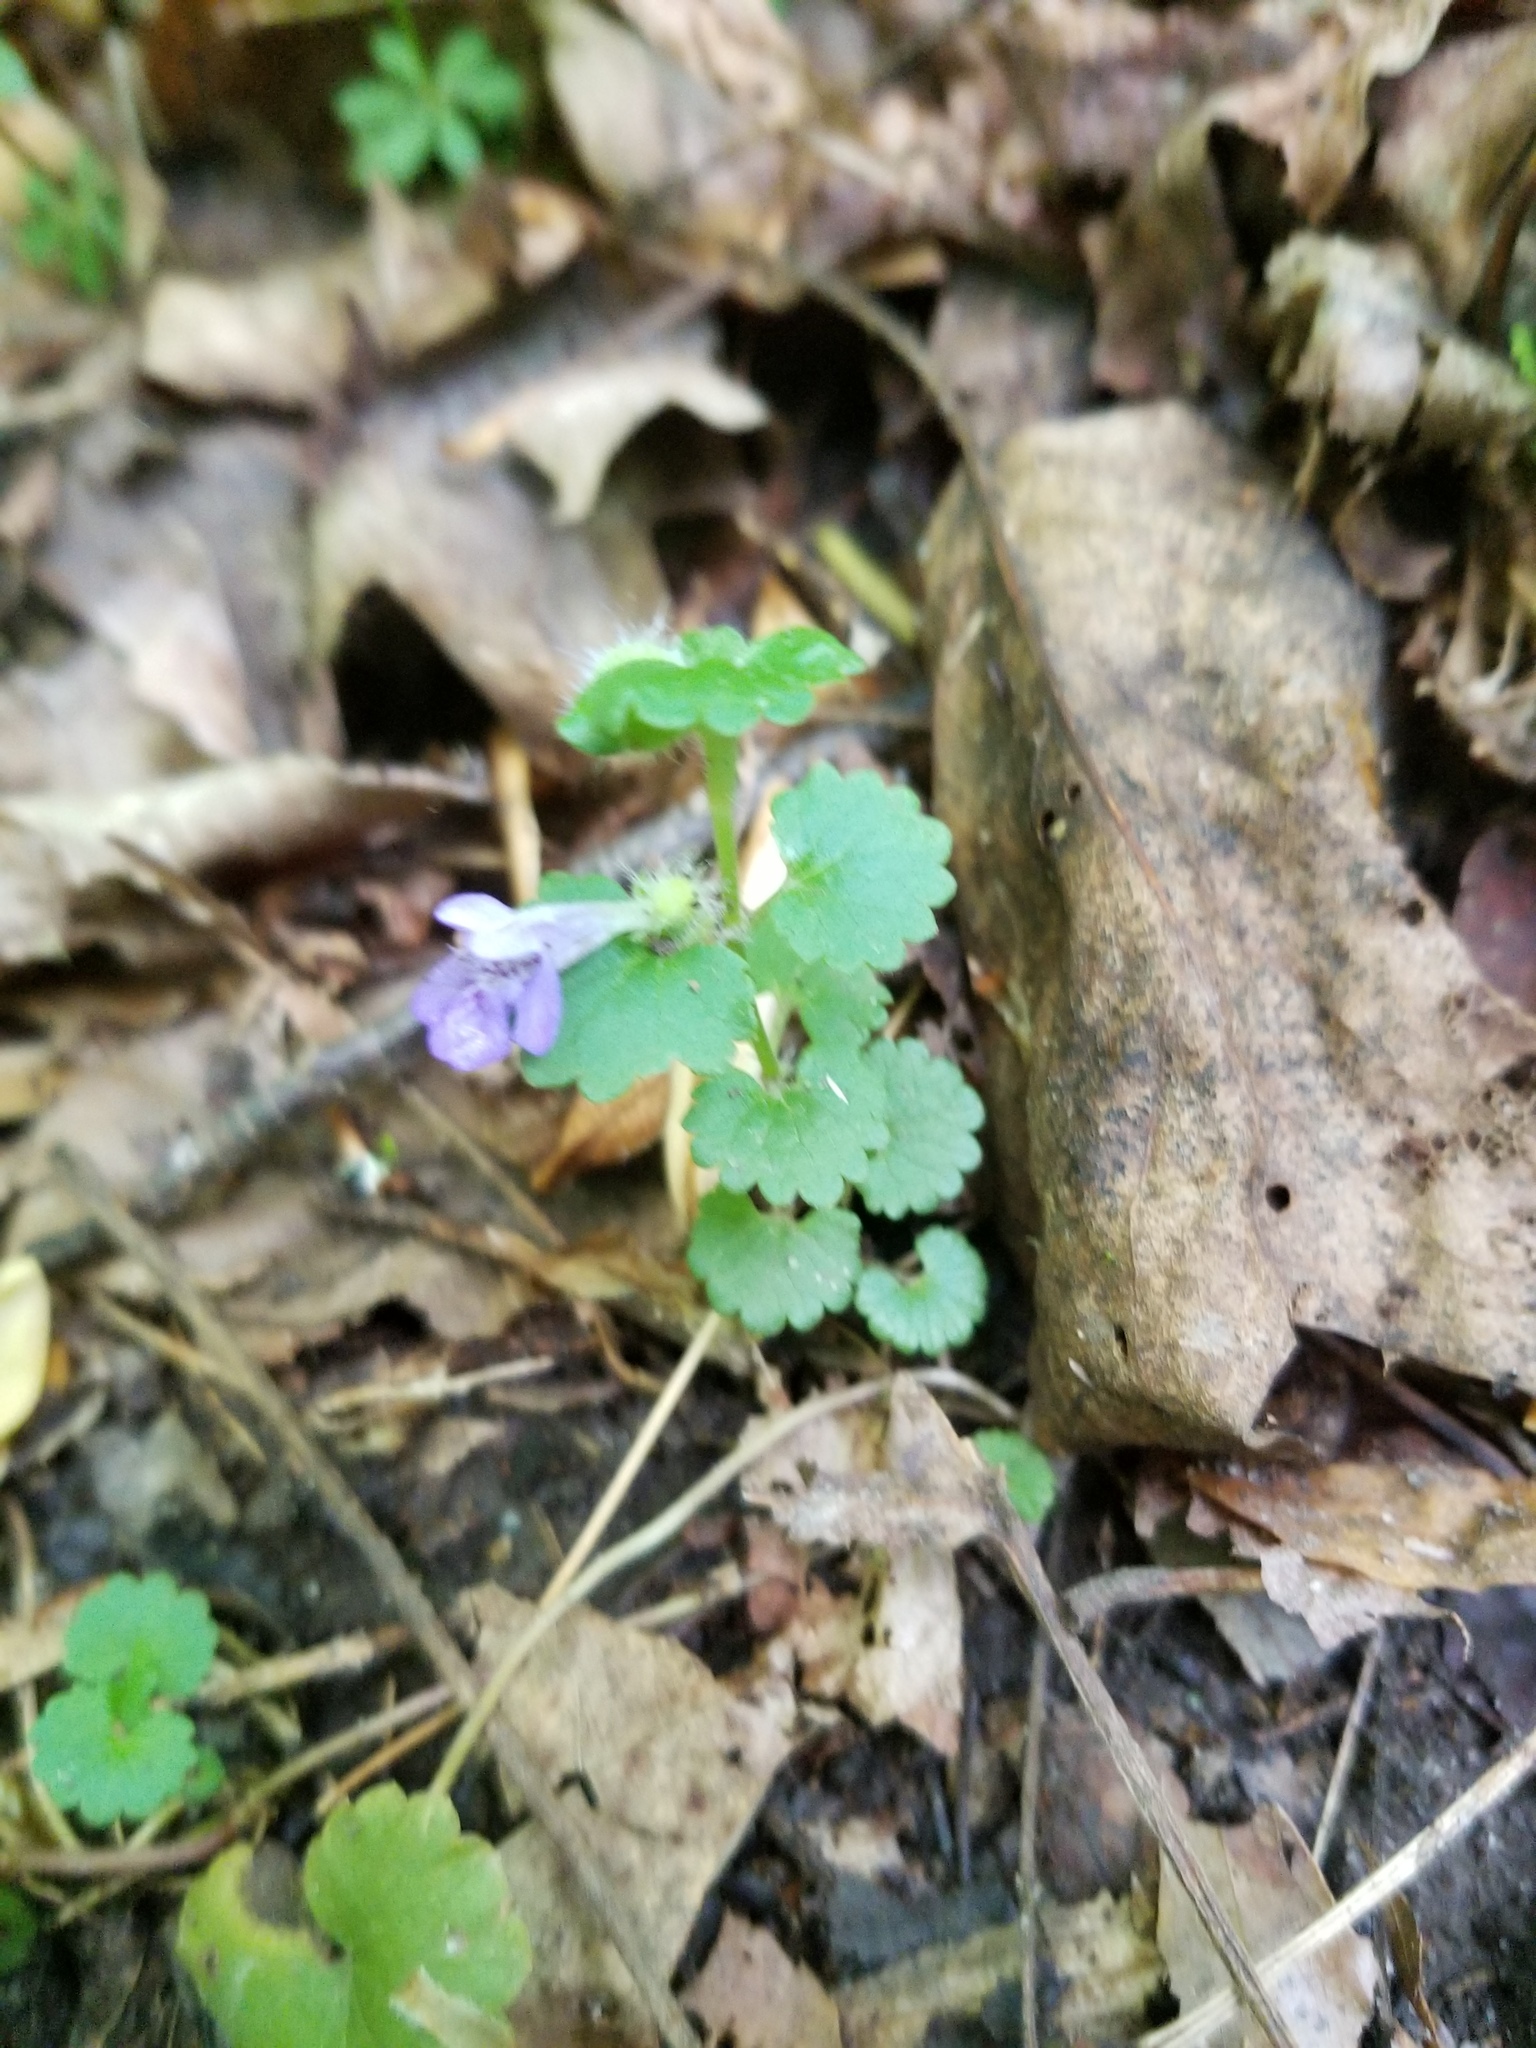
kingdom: Plantae
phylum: Tracheophyta
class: Magnoliopsida
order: Lamiales
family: Lamiaceae
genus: Glechoma
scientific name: Glechoma hederacea
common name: Ground ivy
